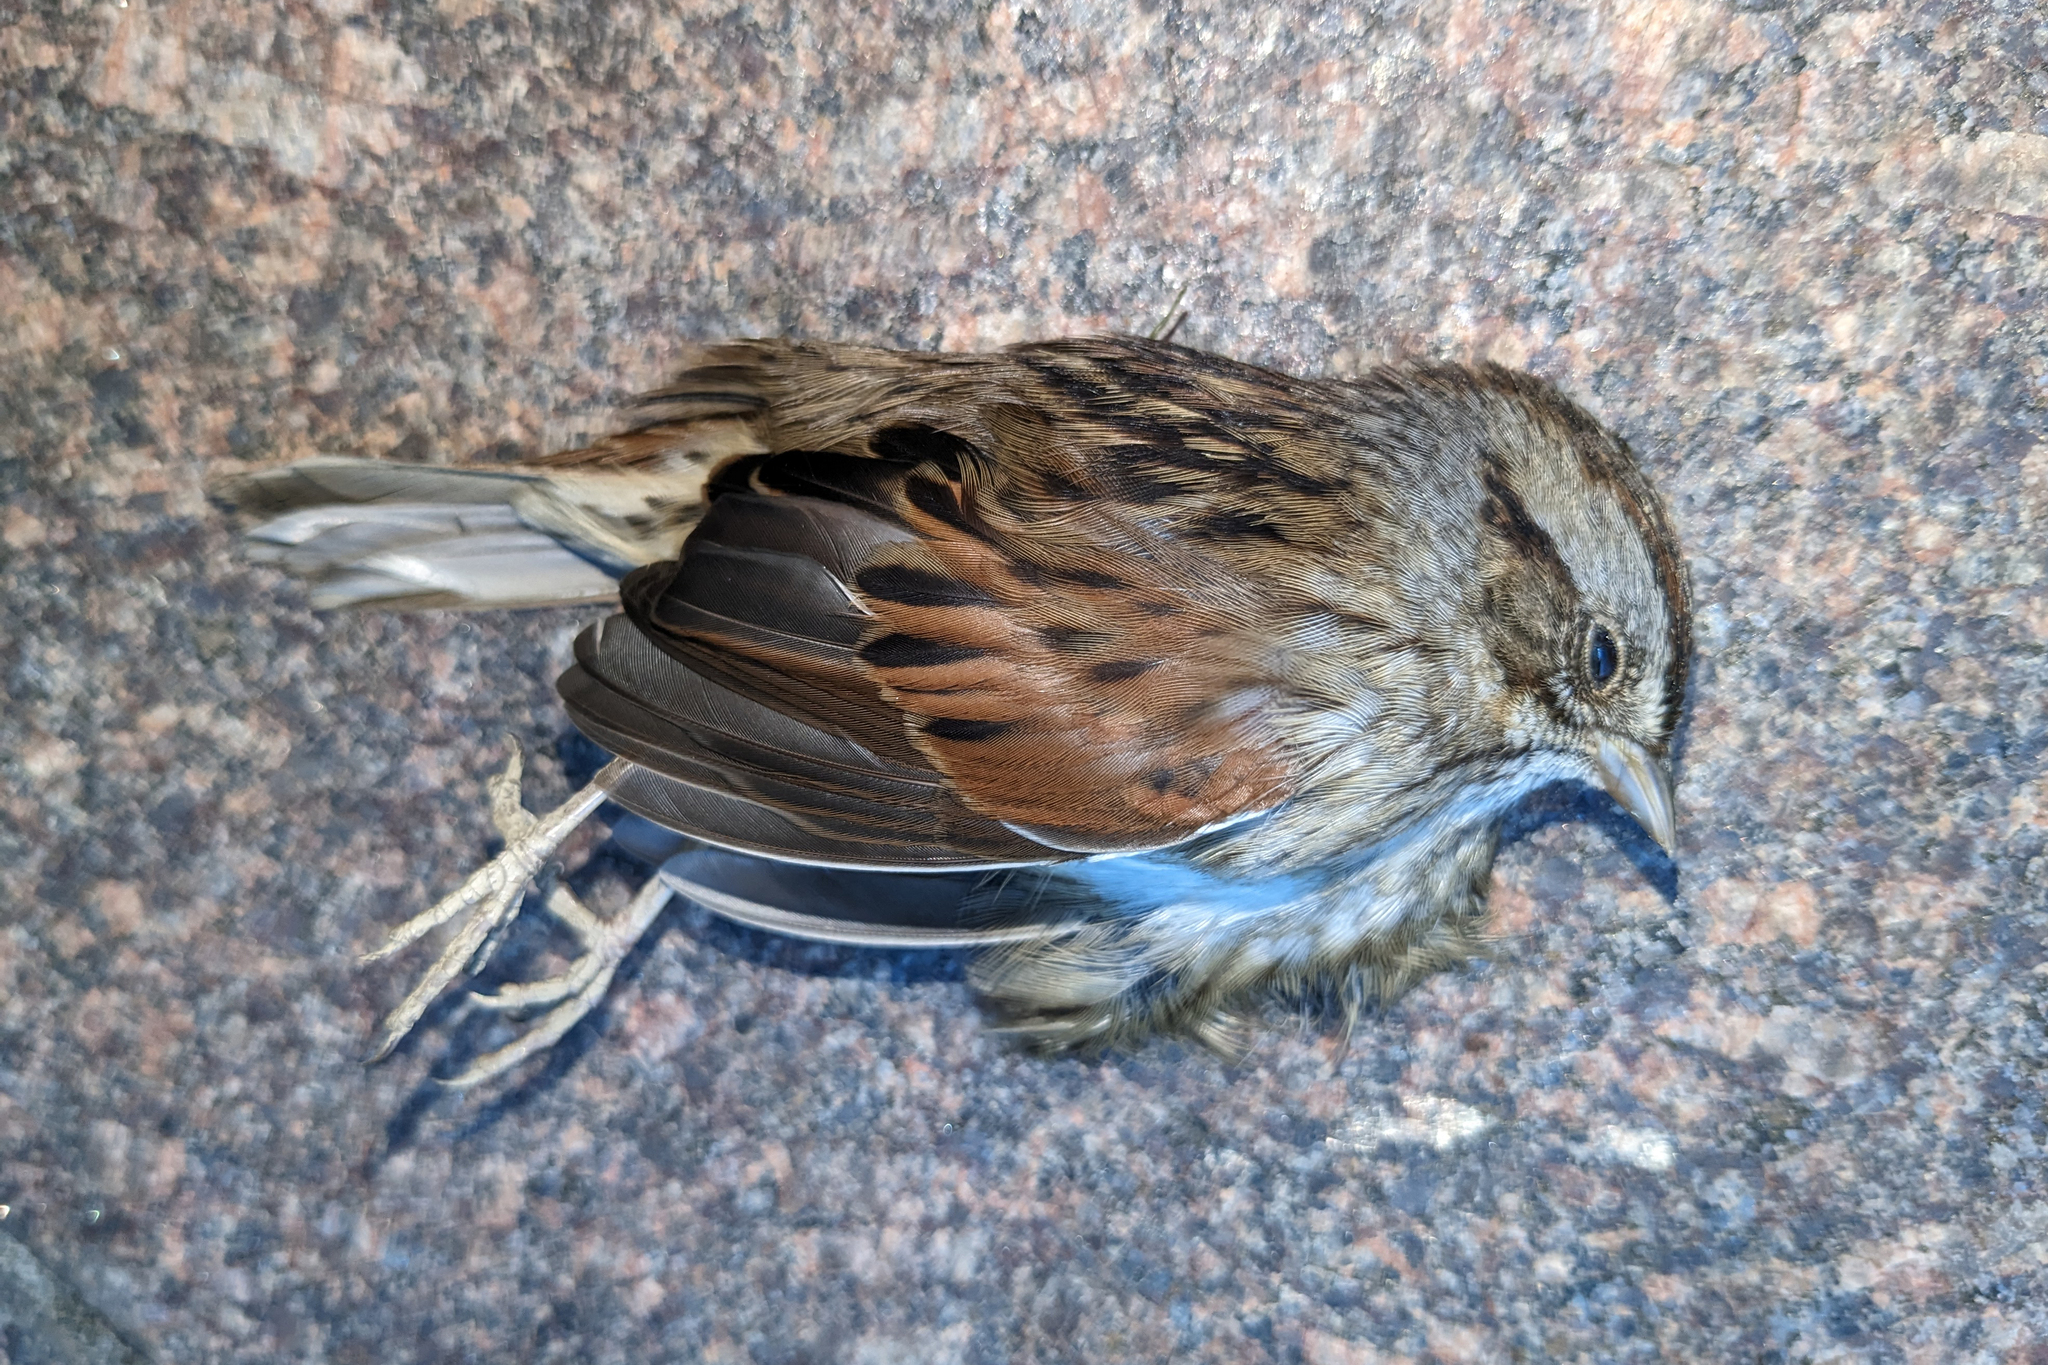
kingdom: Animalia
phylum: Chordata
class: Aves
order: Passeriformes
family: Passerellidae
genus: Melospiza
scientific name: Melospiza georgiana
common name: Swamp sparrow
